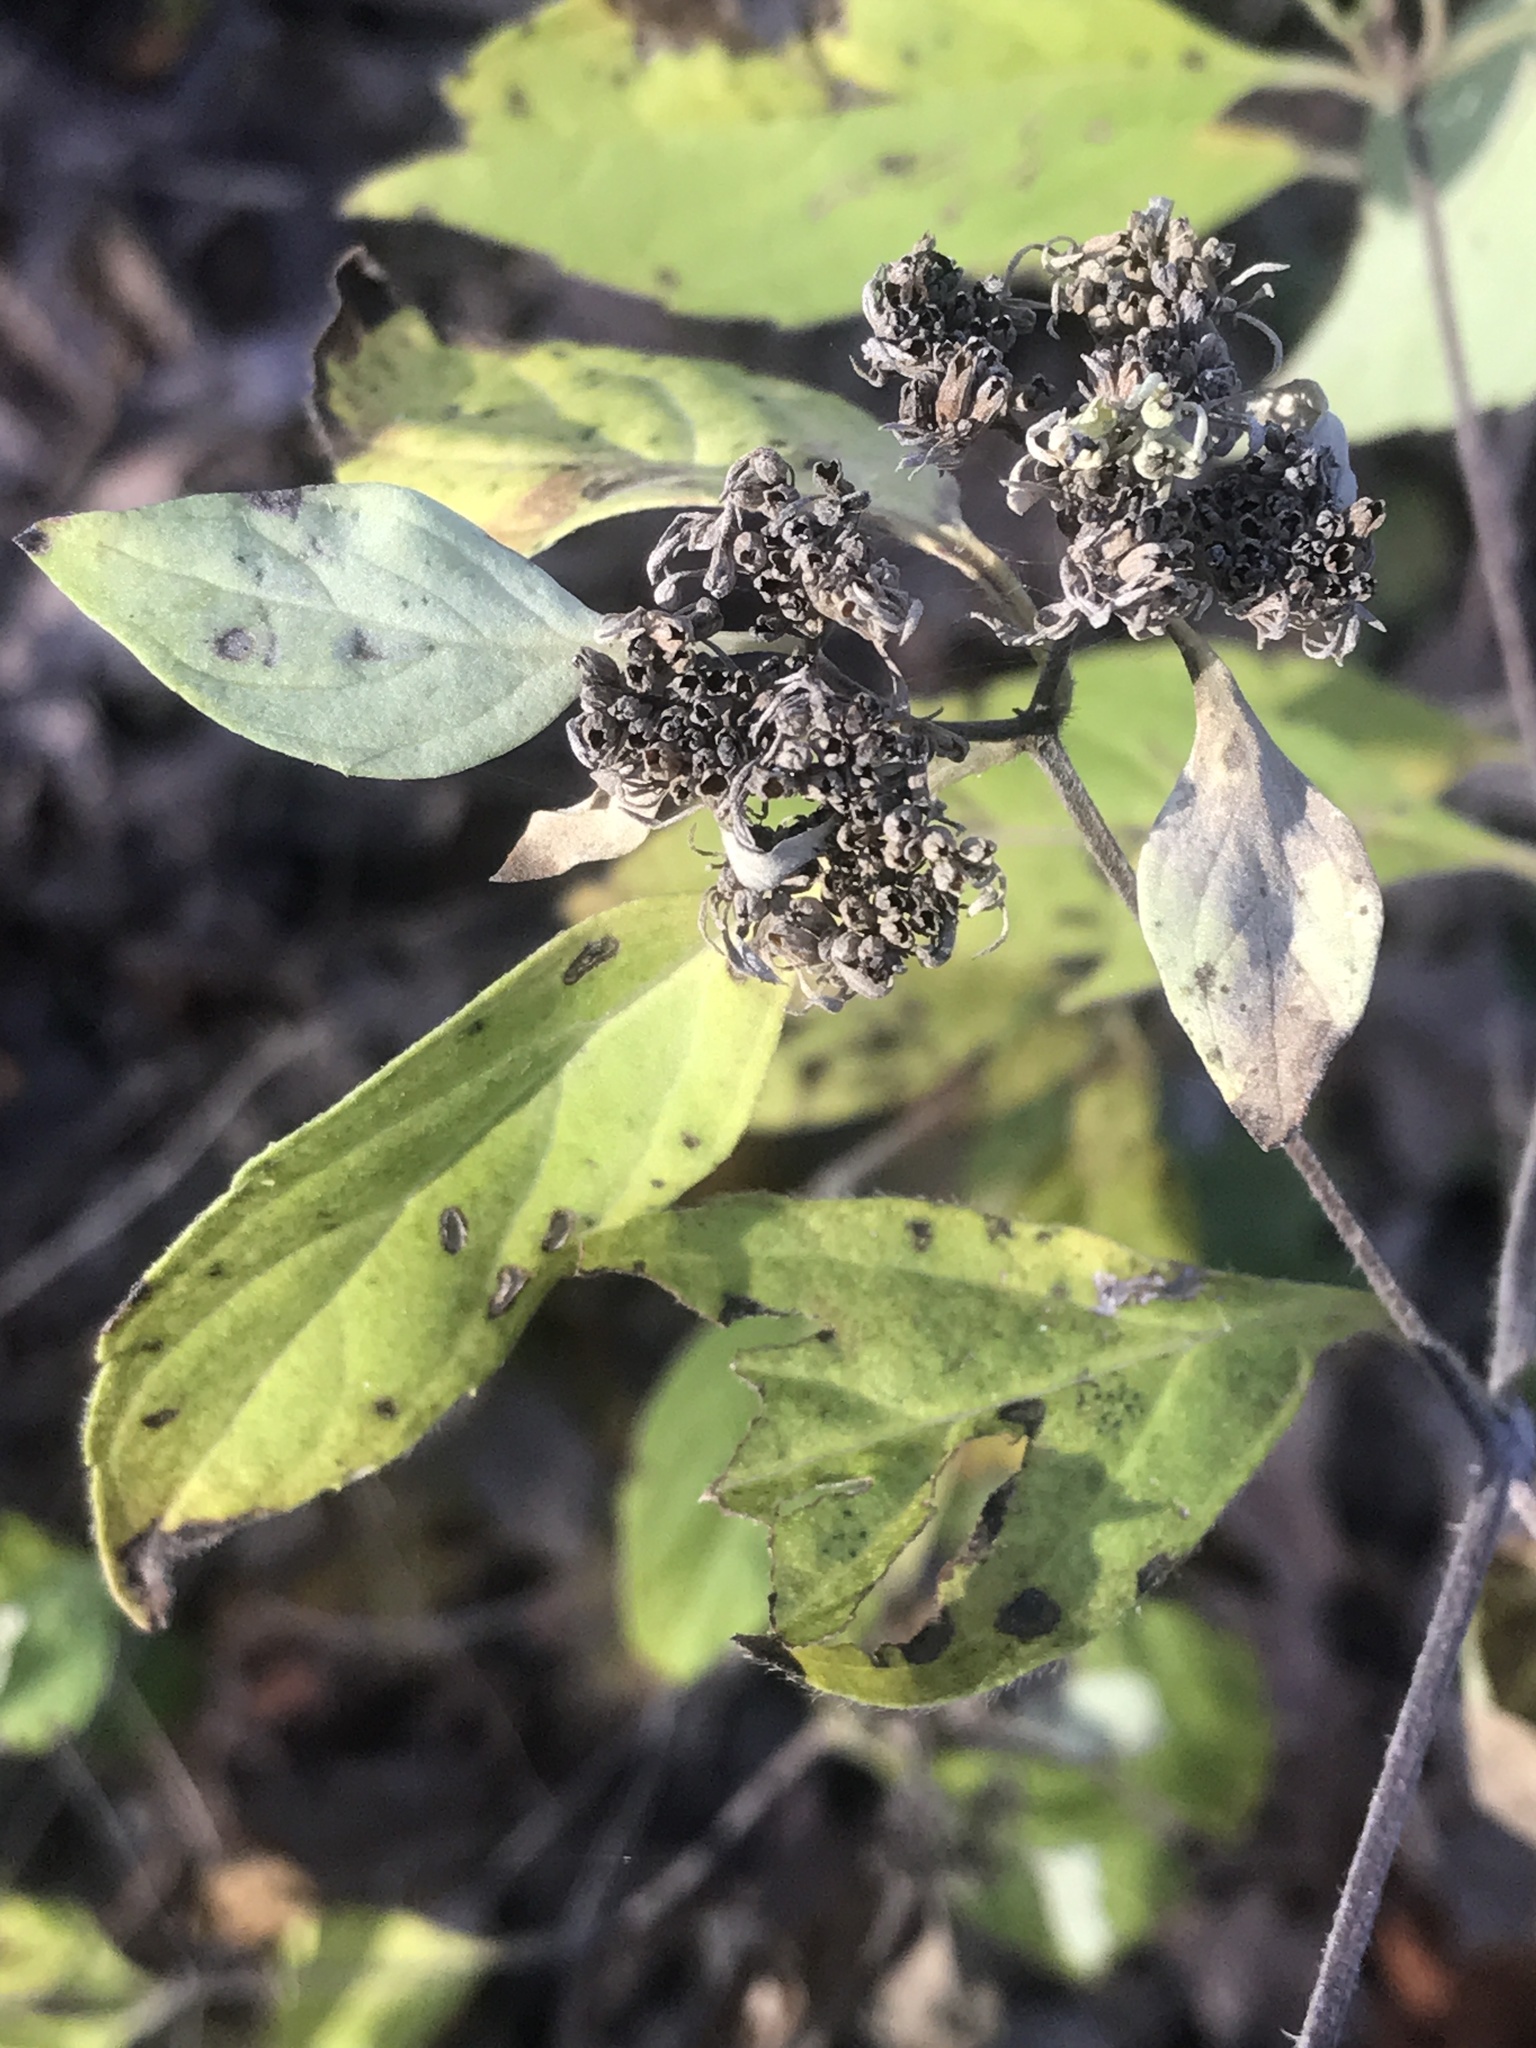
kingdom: Plantae
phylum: Tracheophyta
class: Magnoliopsida
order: Lamiales
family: Lamiaceae
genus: Pycnanthemum
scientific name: Pycnanthemum albescens
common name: White-leaf mountain-mint
